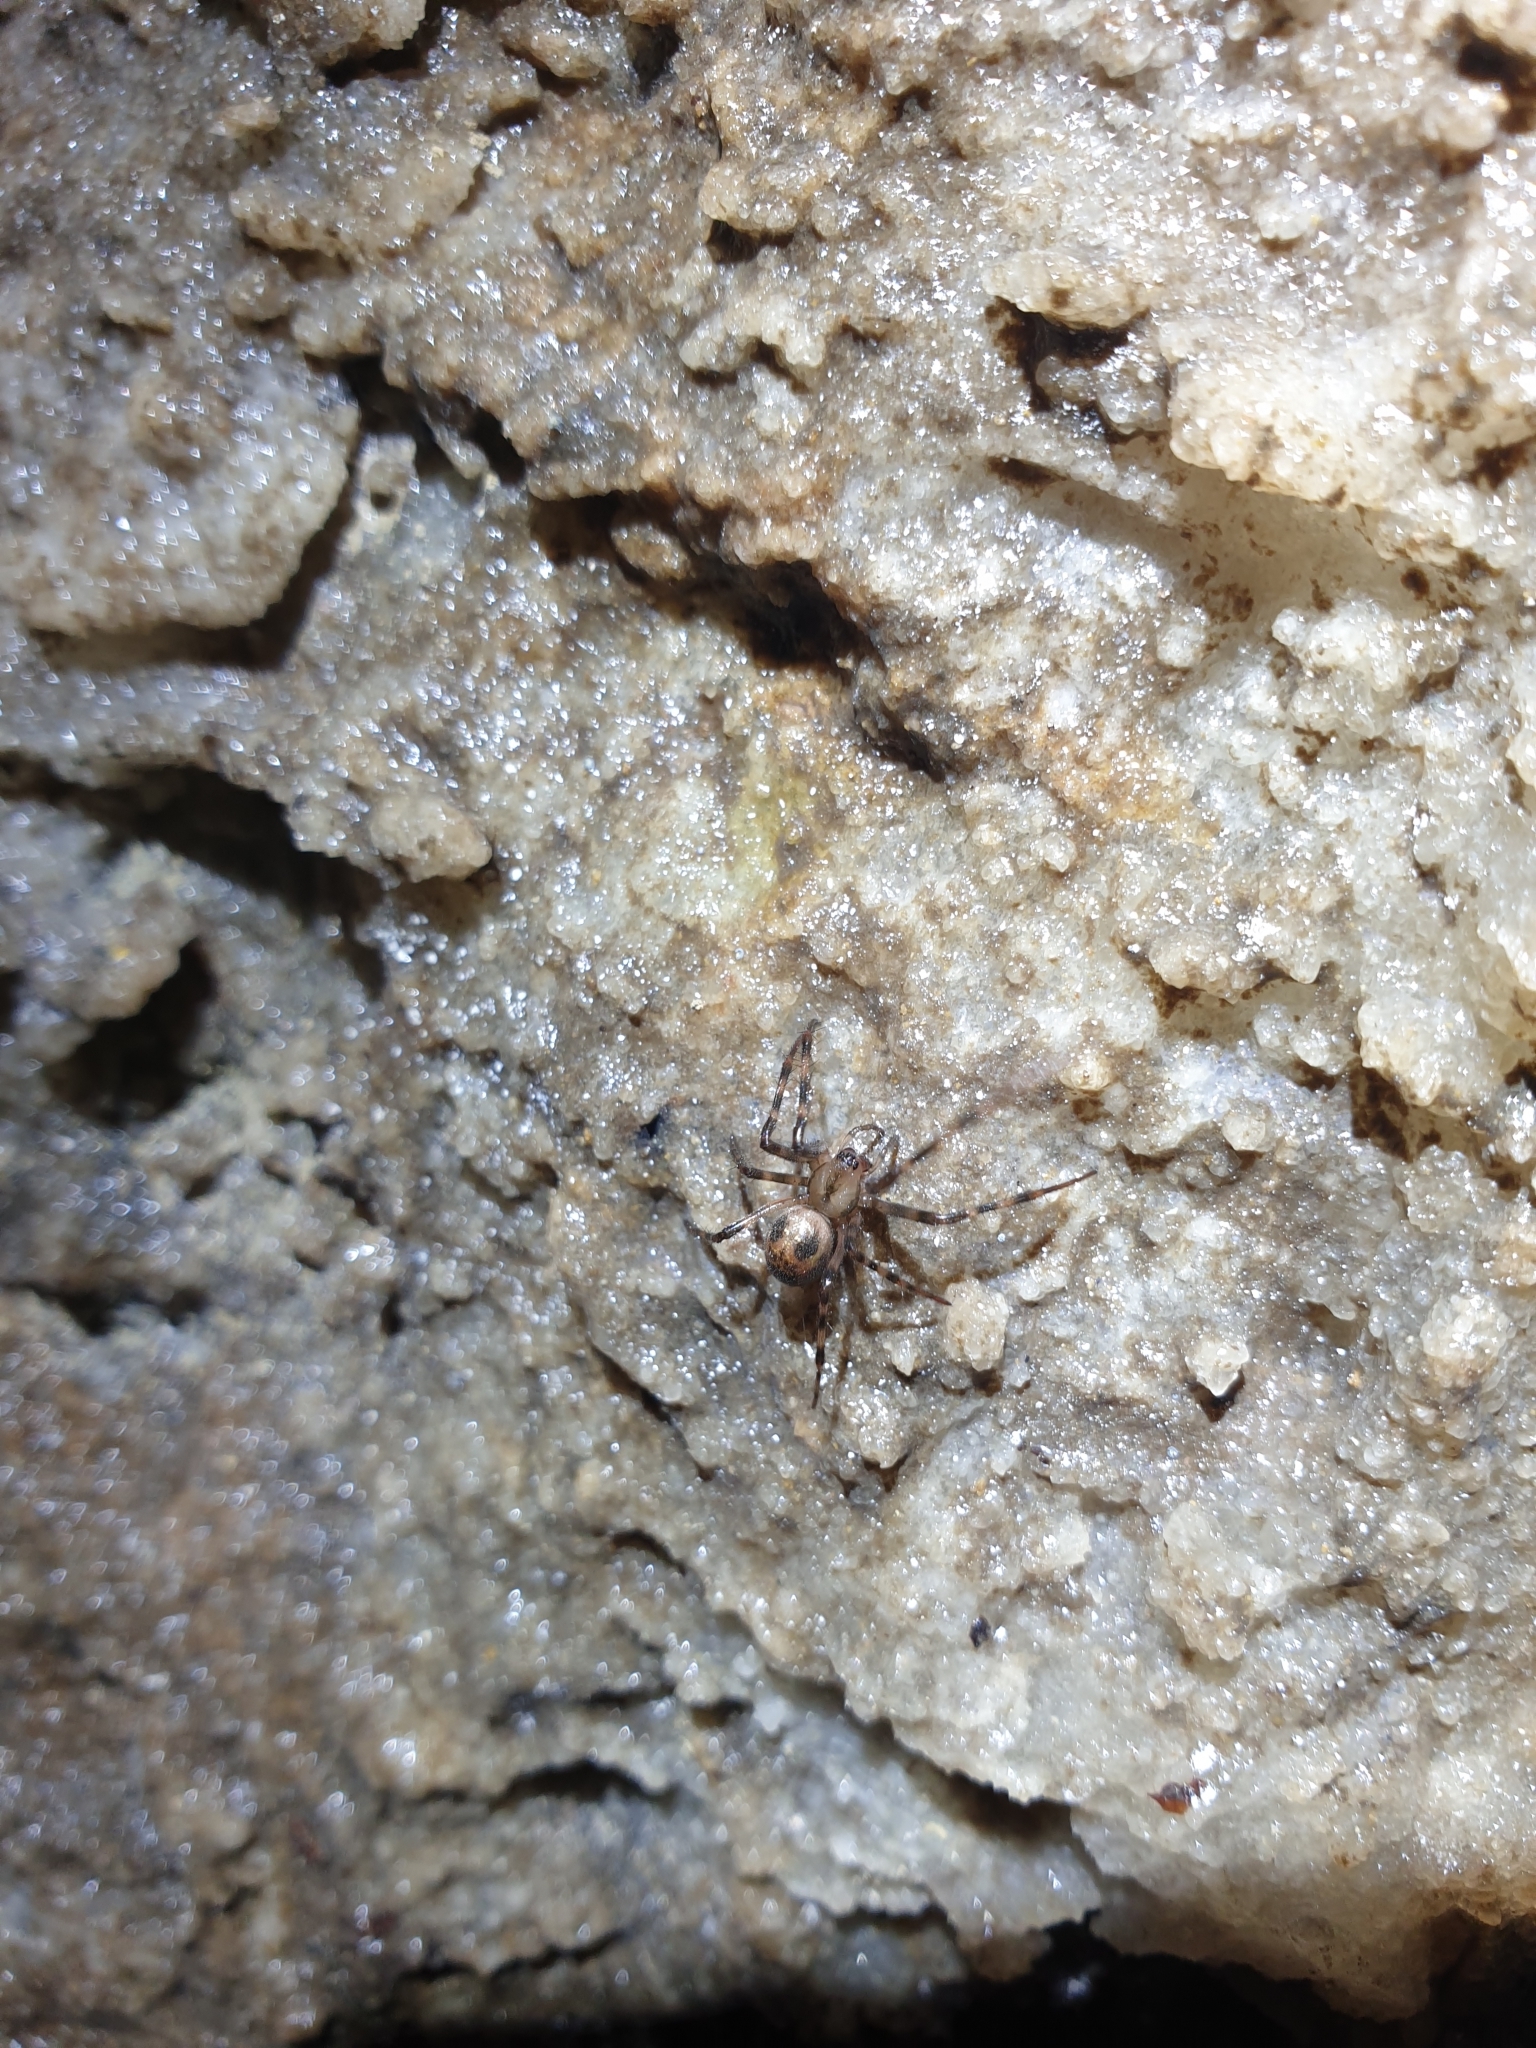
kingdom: Animalia
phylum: Arthropoda
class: Arachnida
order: Araneae
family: Tetragnathidae
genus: Meta
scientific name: Meta menardi
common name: Cave spider
